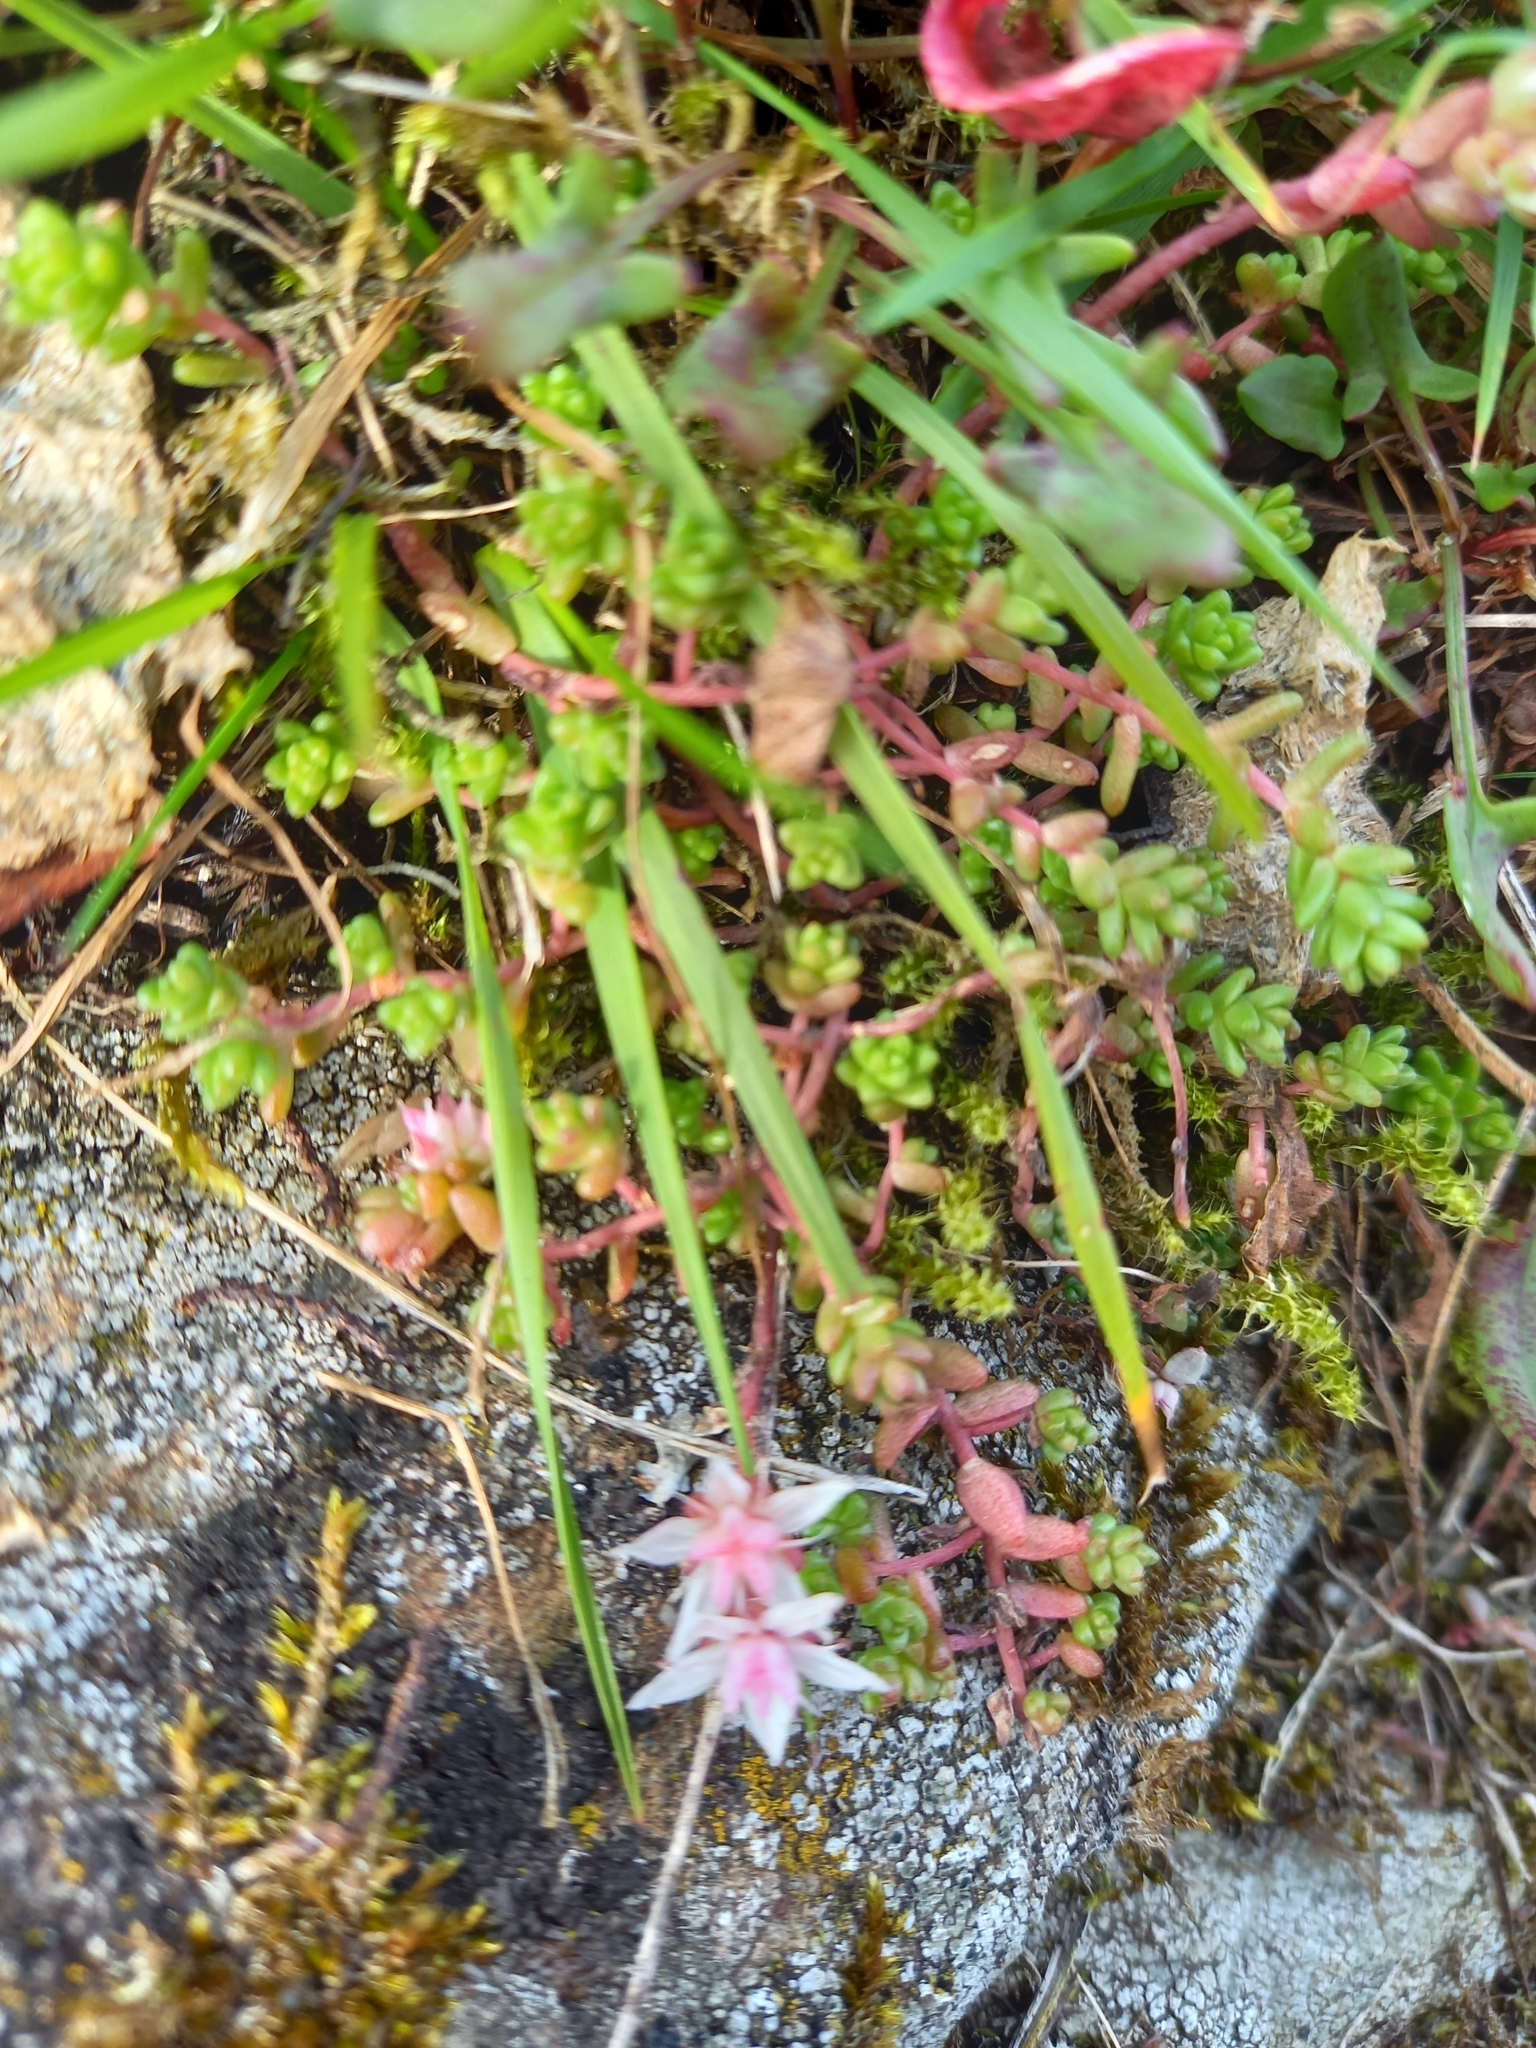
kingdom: Plantae
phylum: Tracheophyta
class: Magnoliopsida
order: Saxifragales
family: Crassulaceae
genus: Sedum
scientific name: Sedum anglicum
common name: English stonecrop
